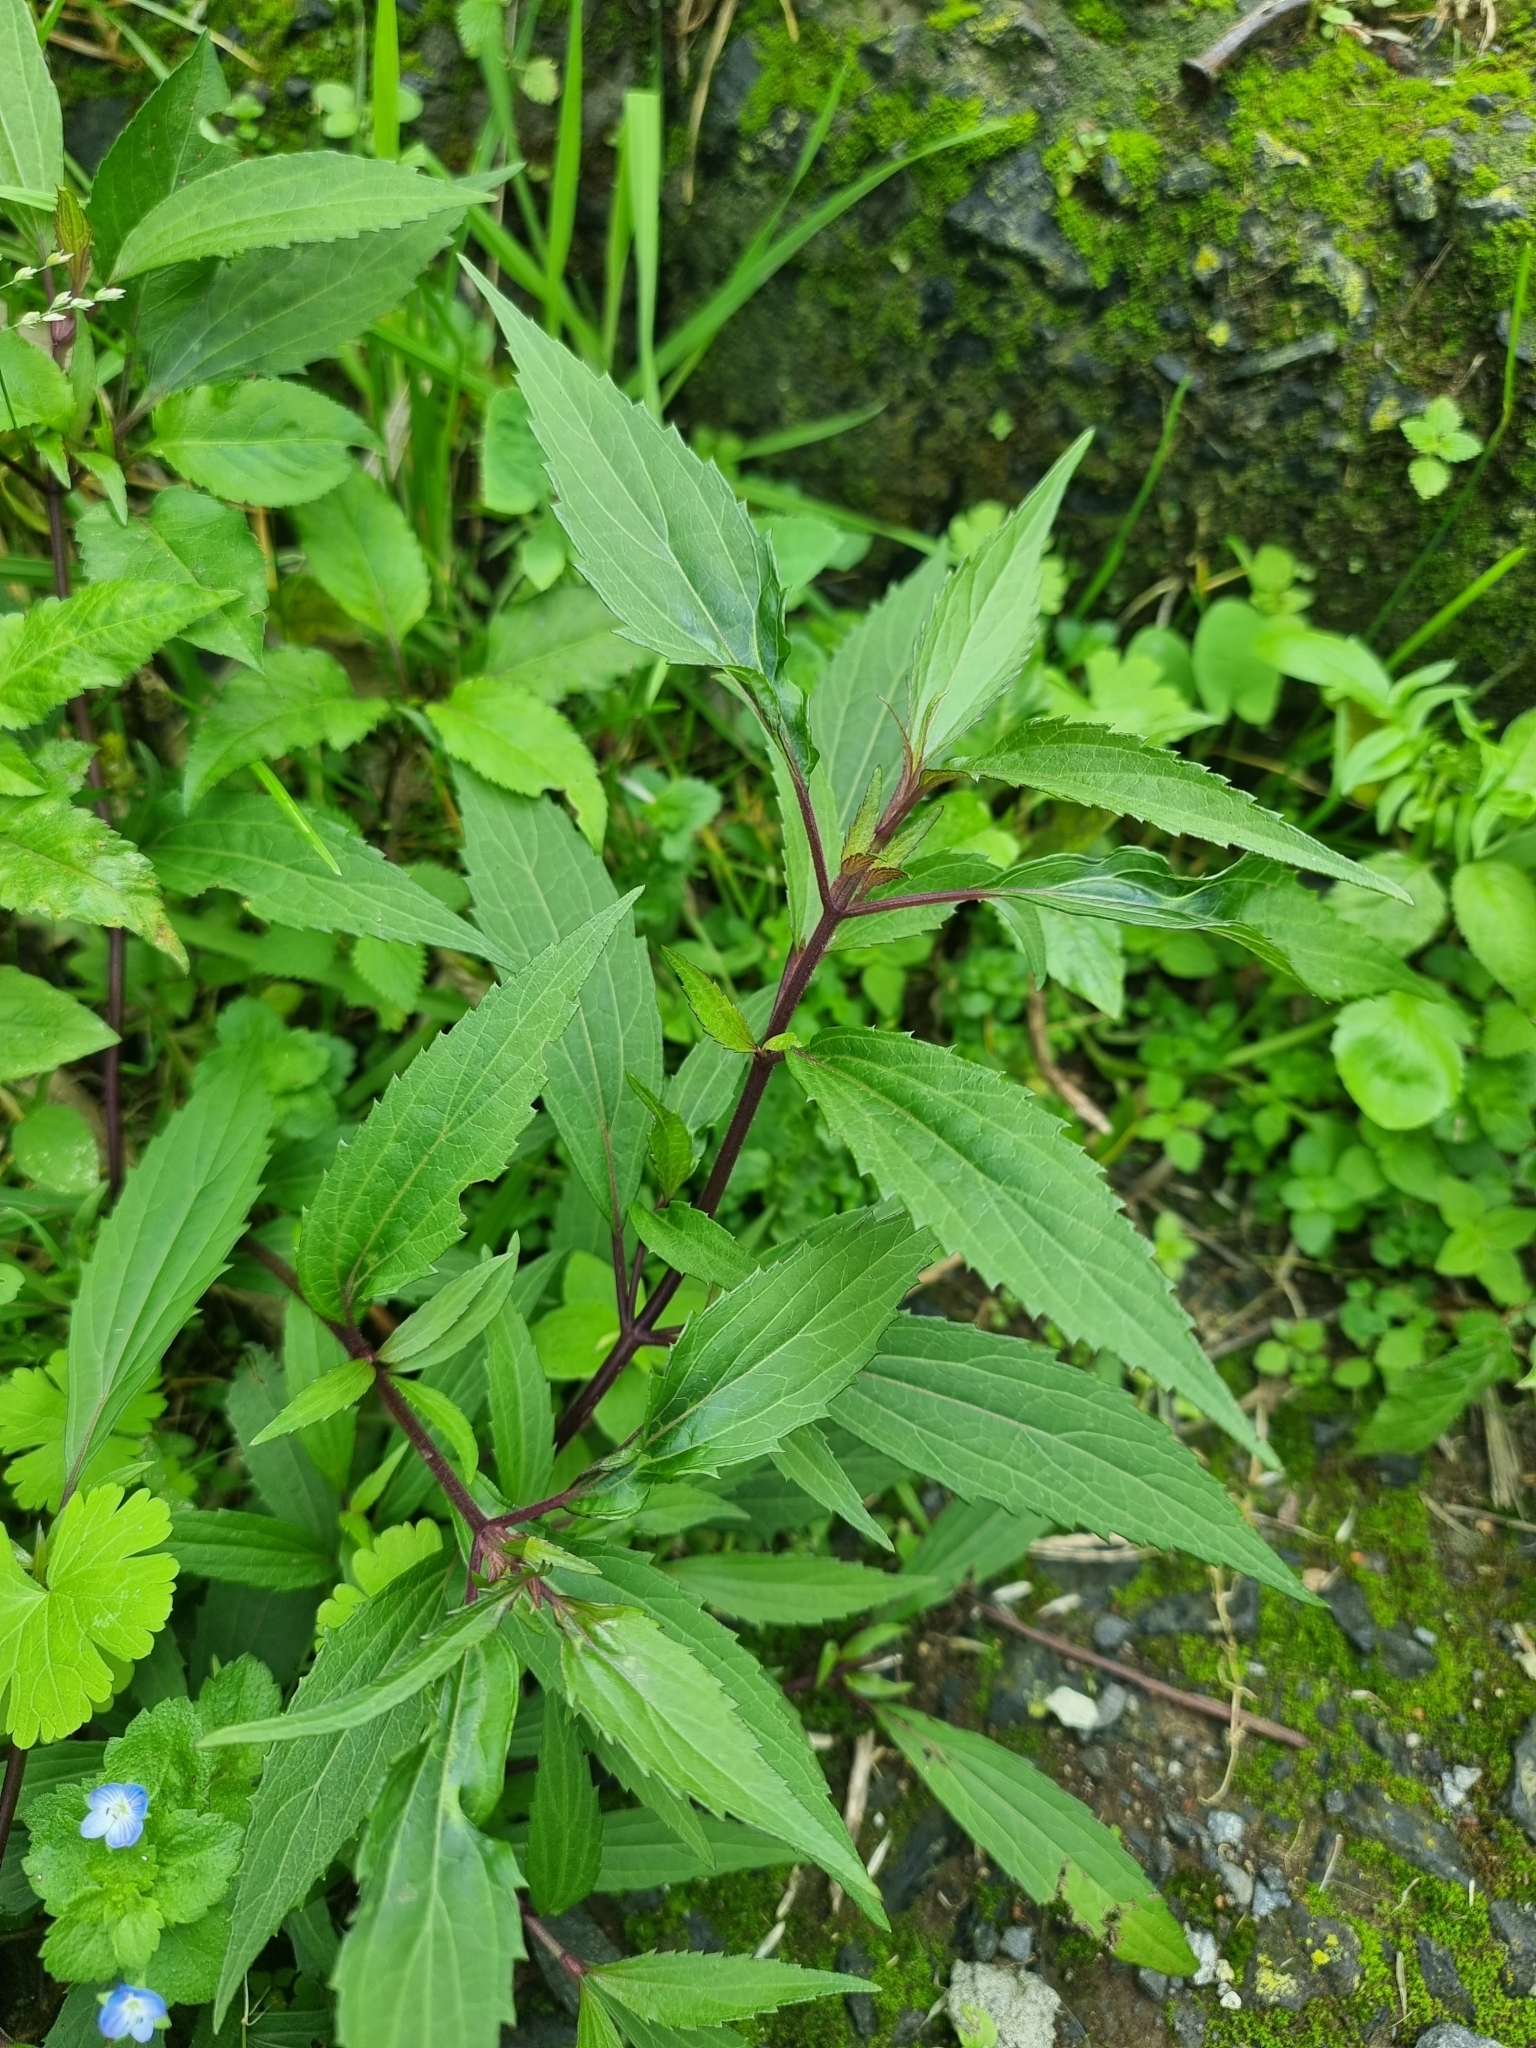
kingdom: Plantae
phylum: Tracheophyta
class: Magnoliopsida
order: Asterales
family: Asteraceae
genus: Ageratina
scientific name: Ageratina riparia
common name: Creeping croftonweed
